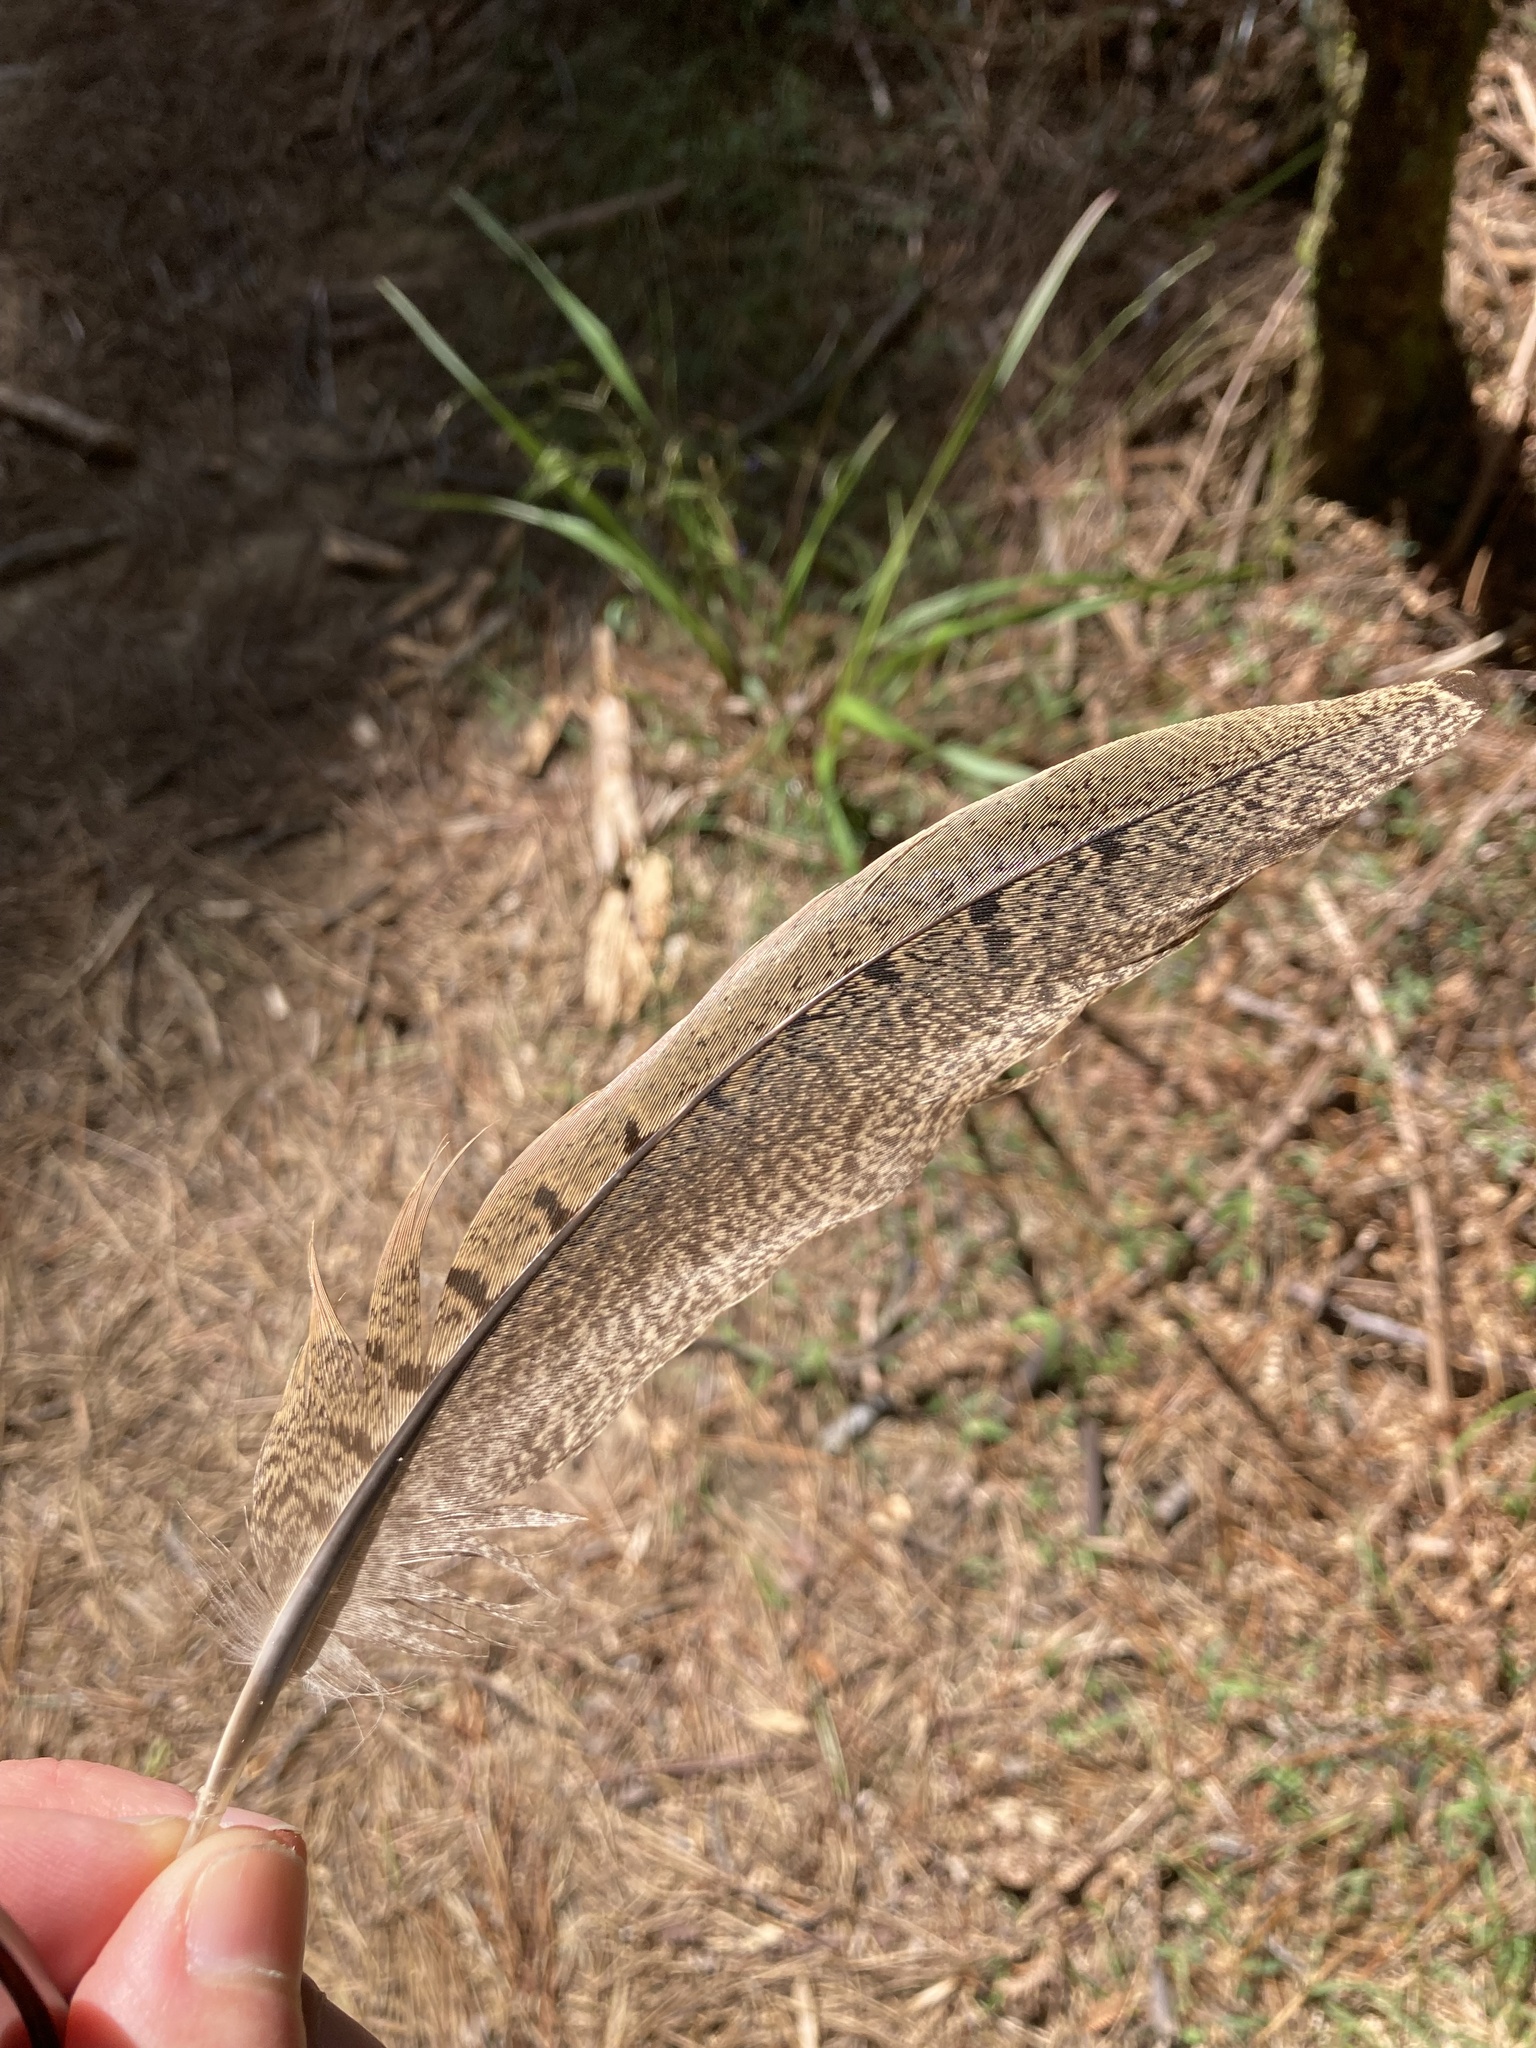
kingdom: Animalia
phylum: Chordata
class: Aves
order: Galliformes
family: Phasianidae
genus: Phasianus
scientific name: Phasianus colchicus
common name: Common pheasant
